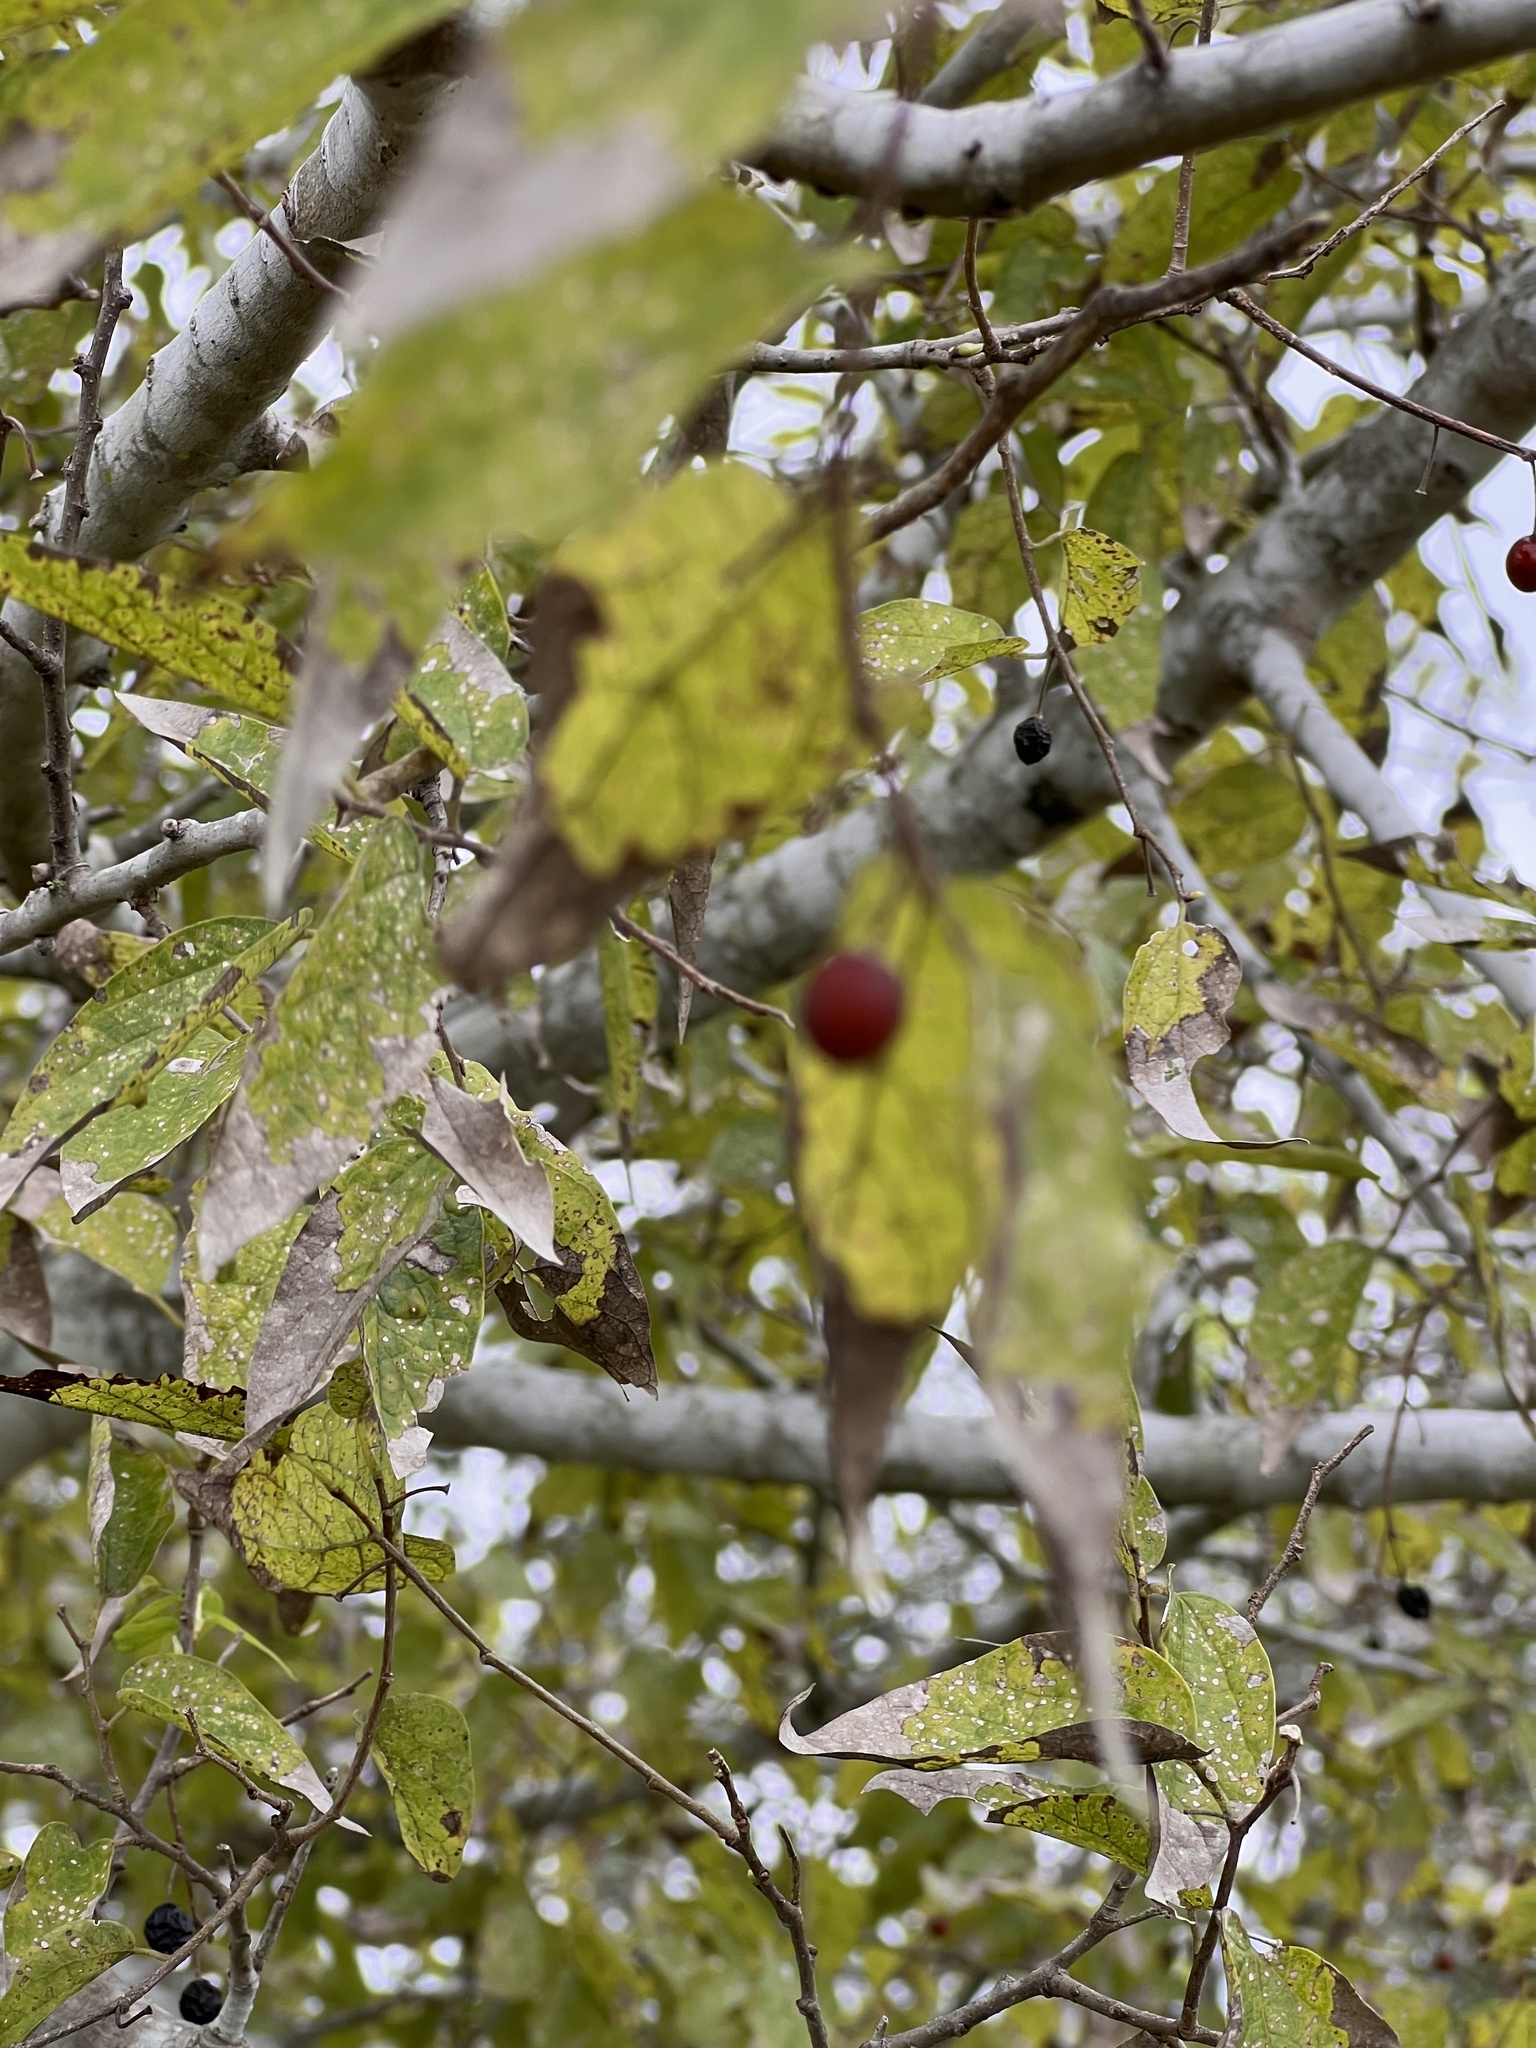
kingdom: Plantae
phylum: Tracheophyta
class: Magnoliopsida
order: Rosales
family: Cannabaceae
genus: Celtis
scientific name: Celtis laevigata
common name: Sugarberry
